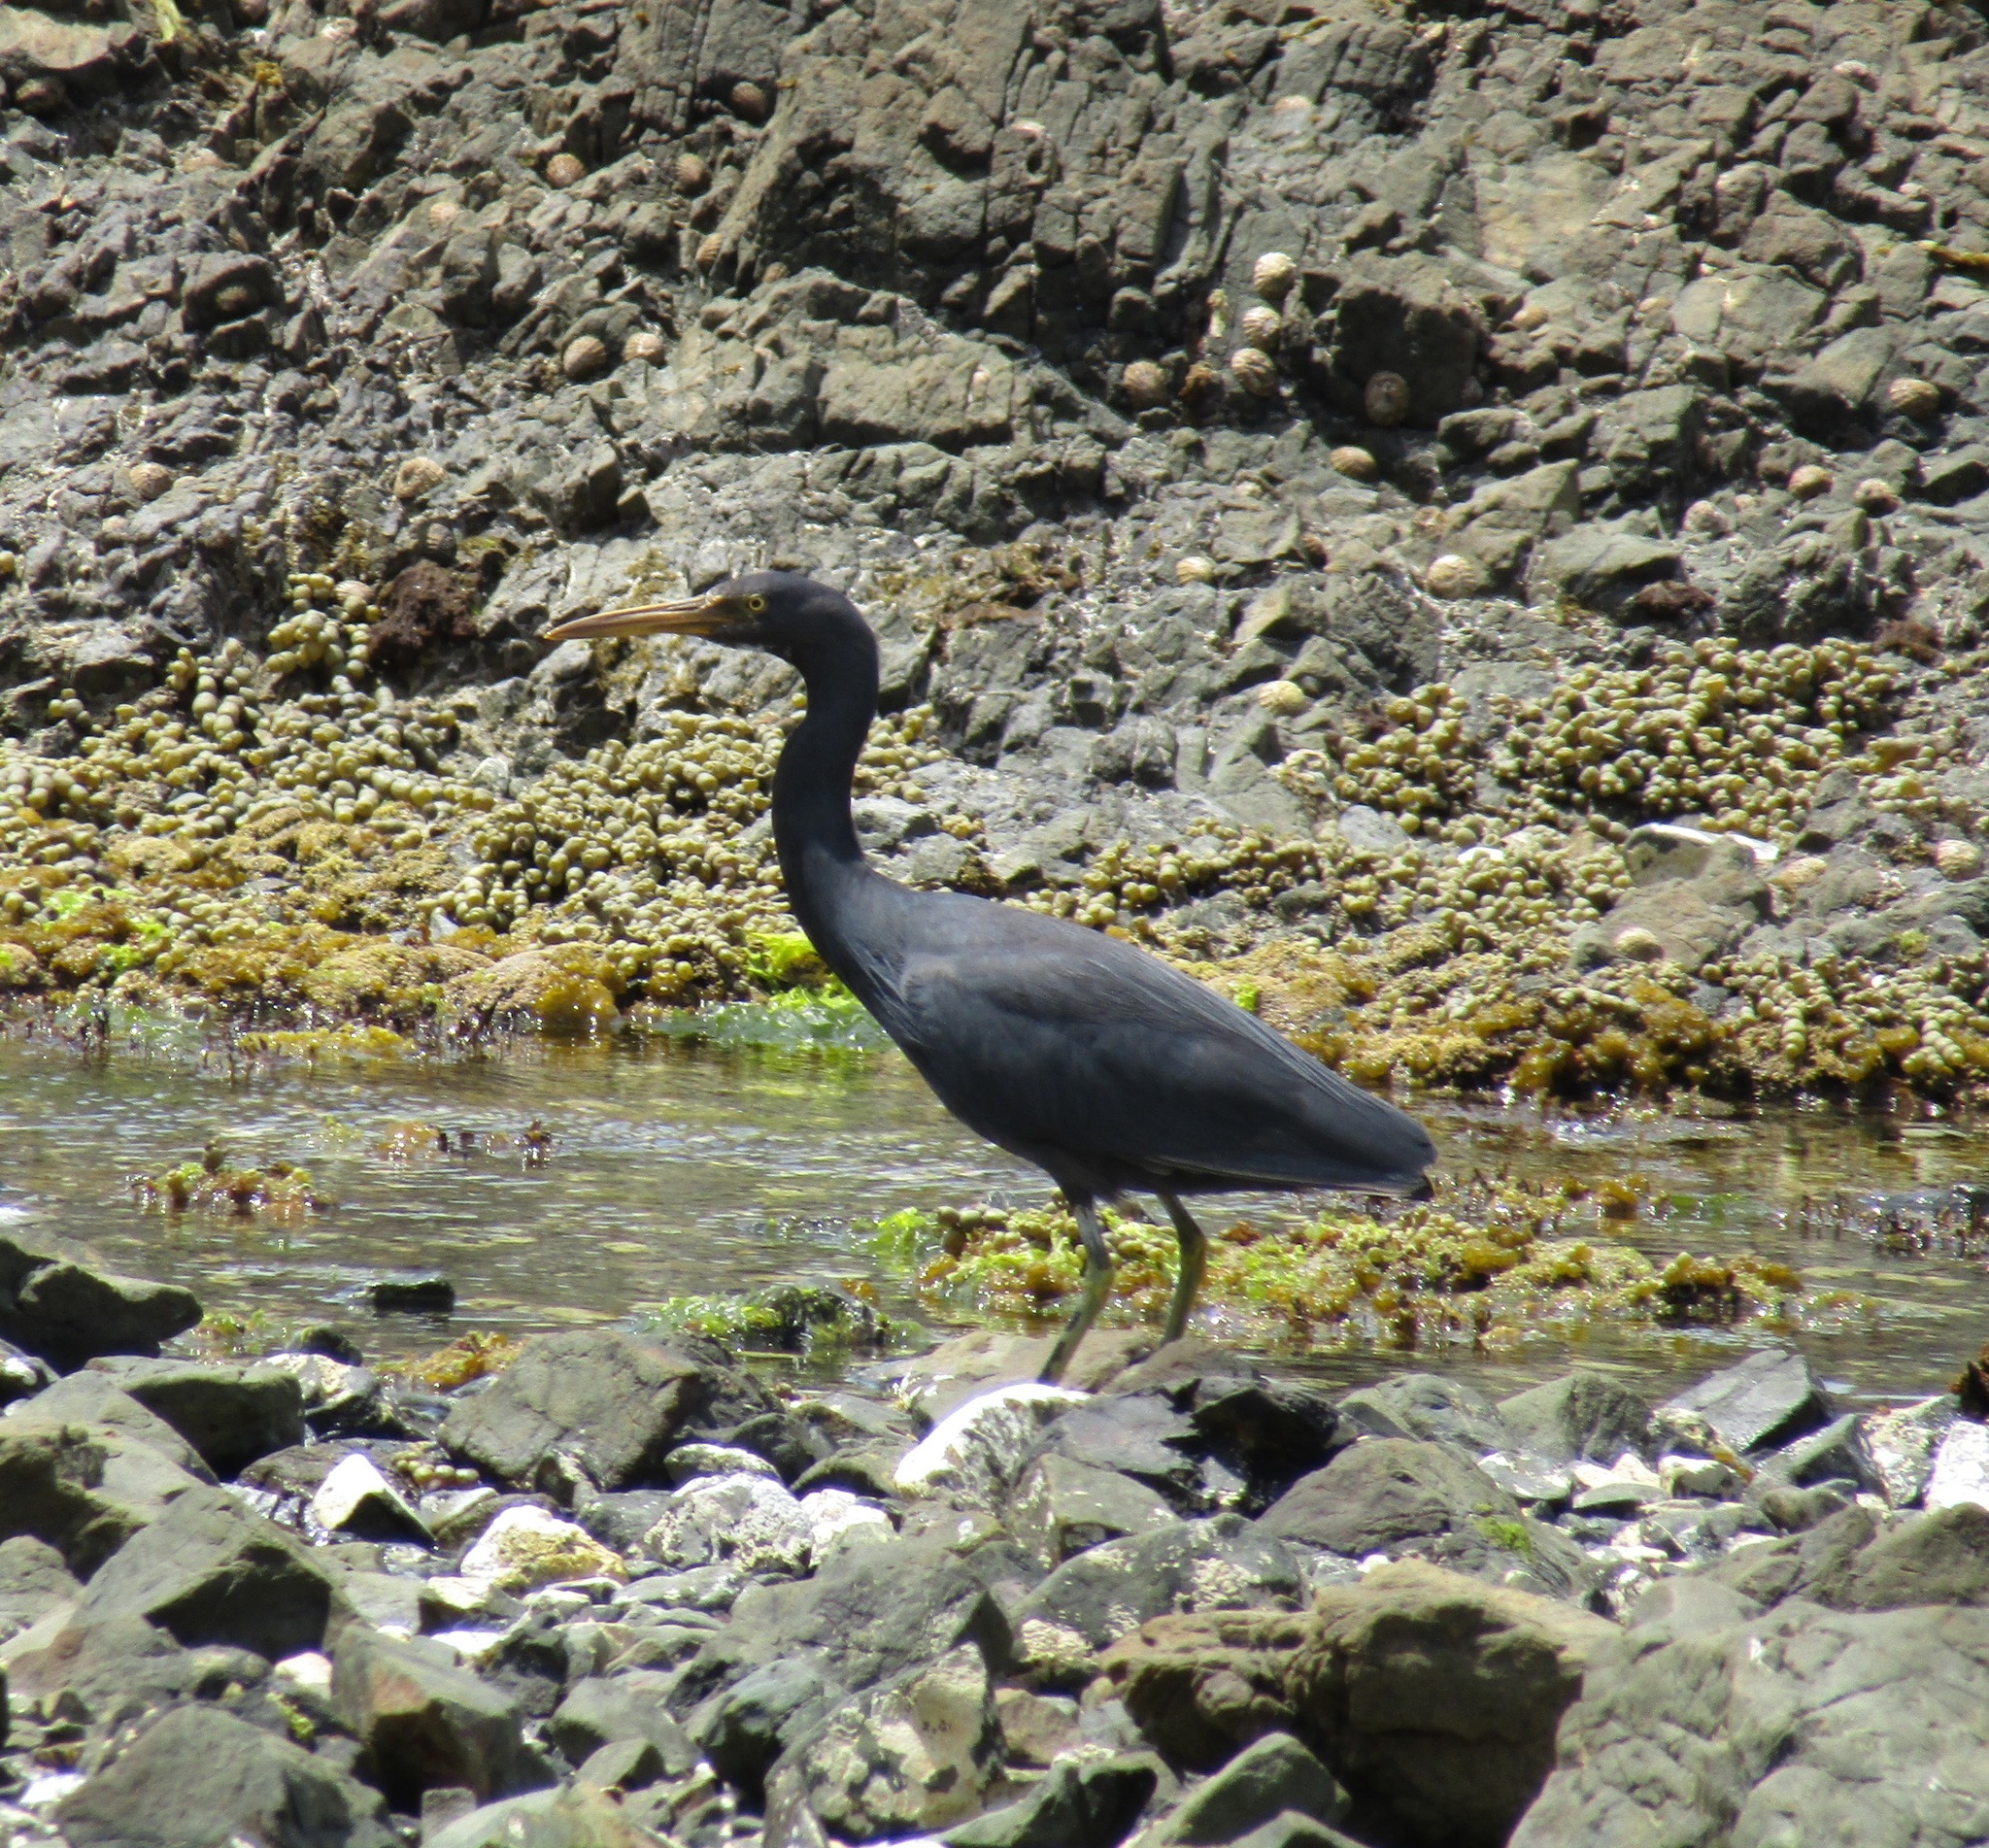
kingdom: Animalia
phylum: Chordata
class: Aves
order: Pelecaniformes
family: Ardeidae
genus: Egretta
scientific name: Egretta sacra
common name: Pacific reef heron
